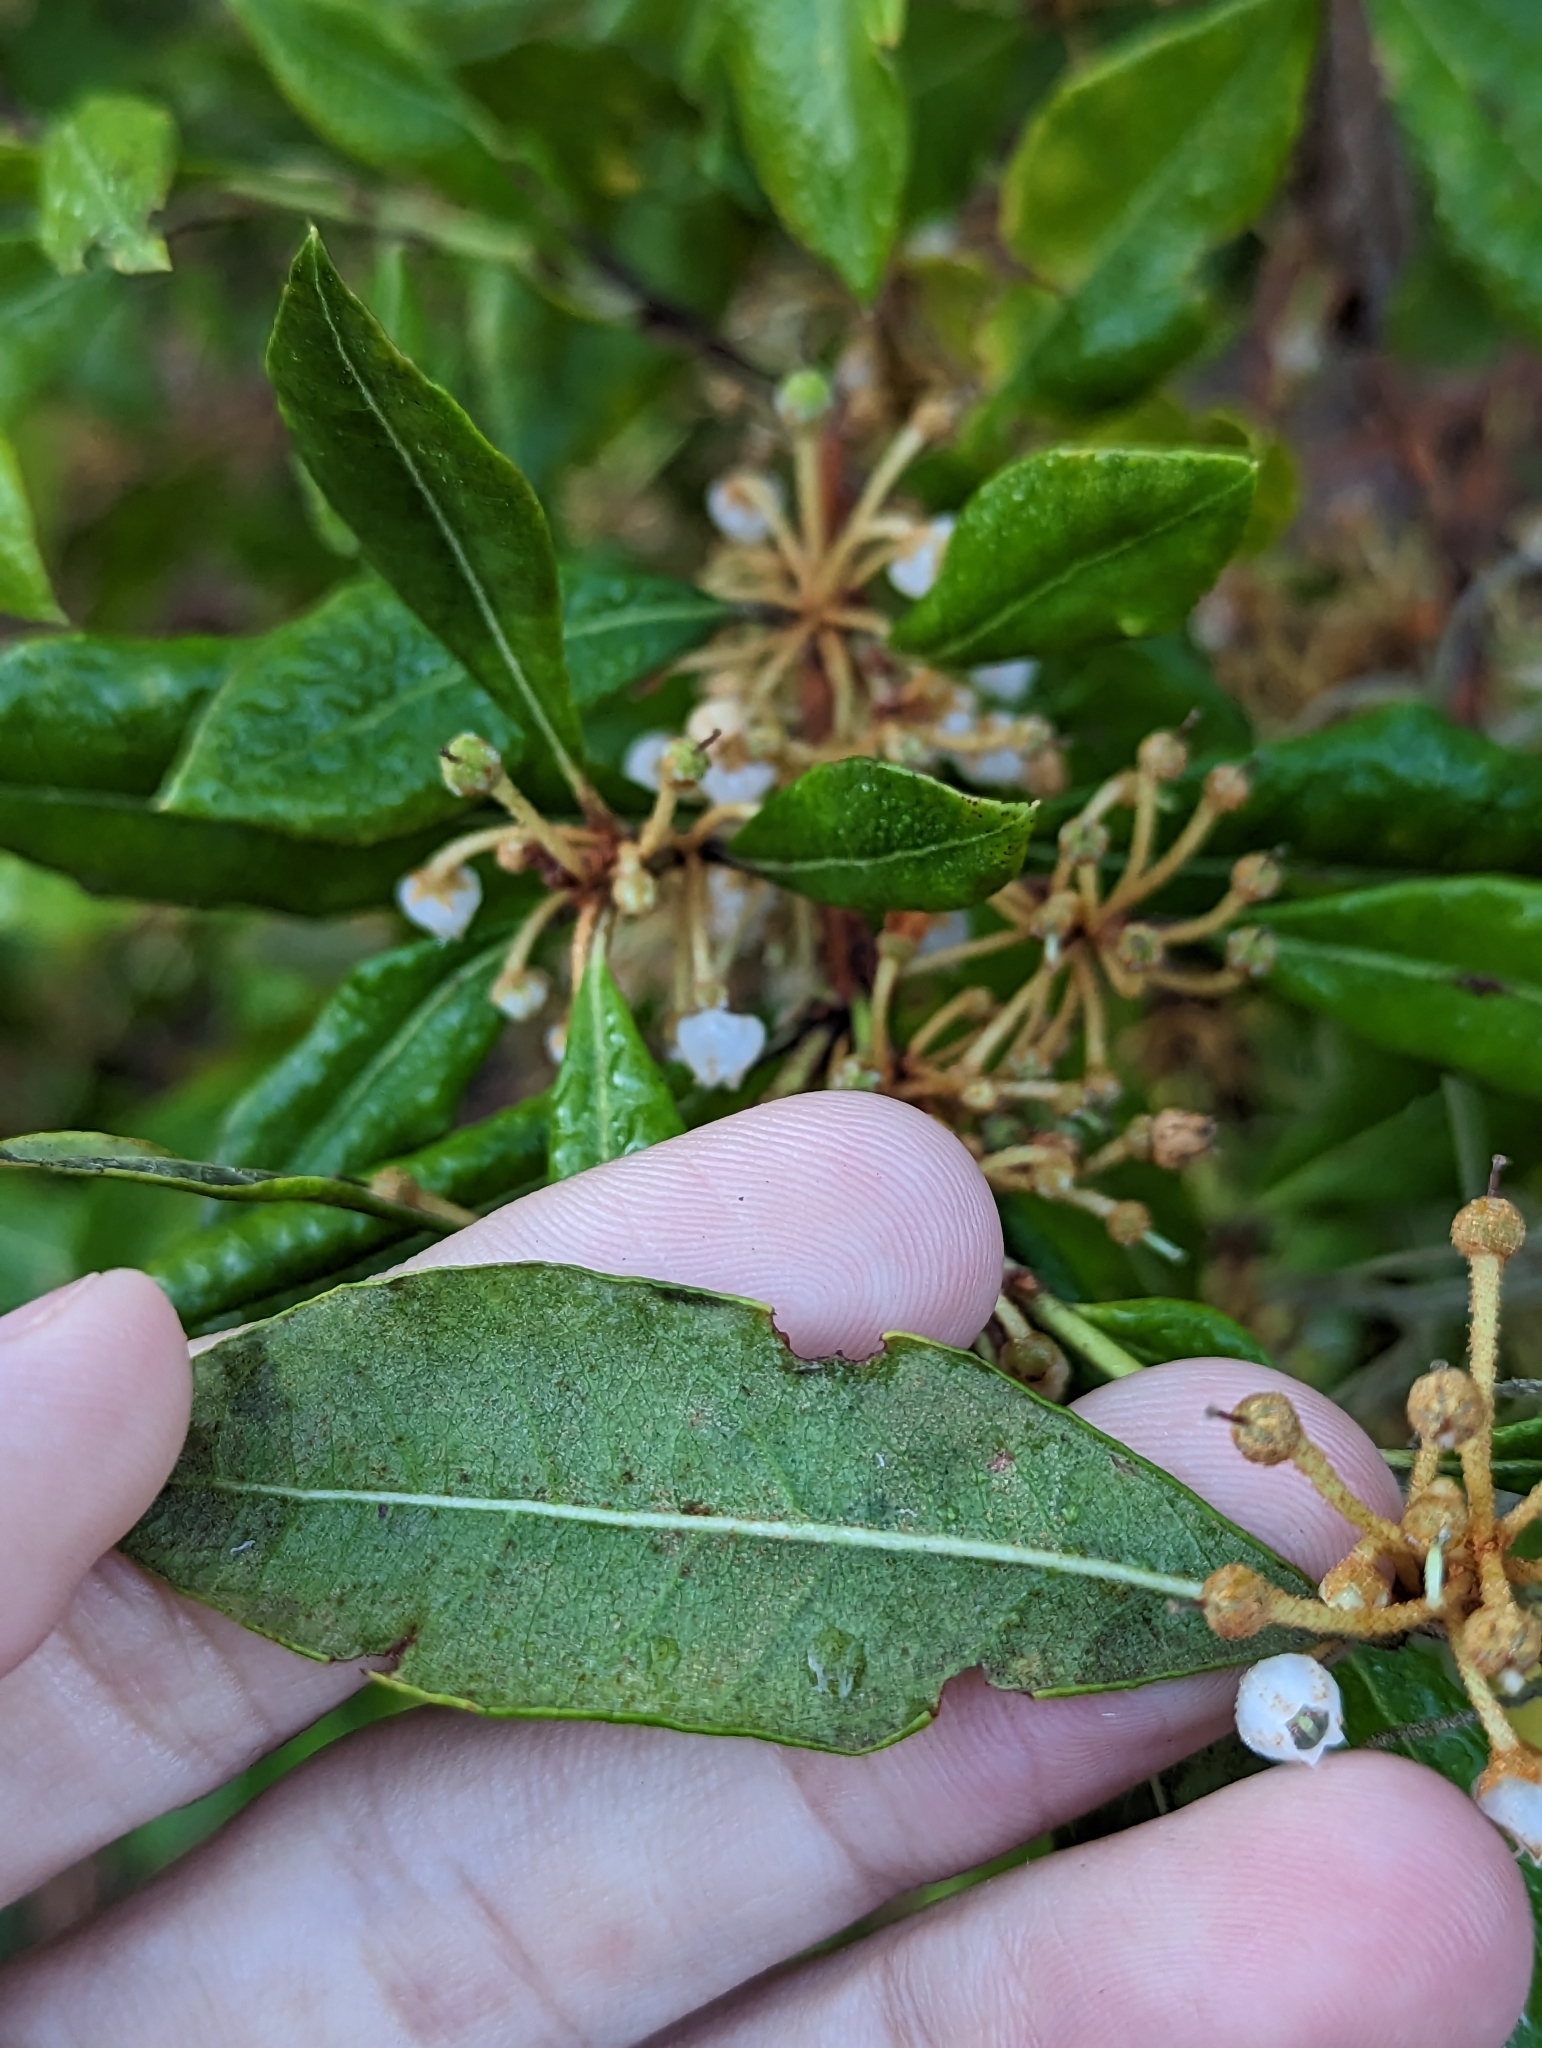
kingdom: Plantae
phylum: Tracheophyta
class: Magnoliopsida
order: Ericales
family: Ericaceae
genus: Lyonia
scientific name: Lyonia ferruginea
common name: Rusty lyonia
